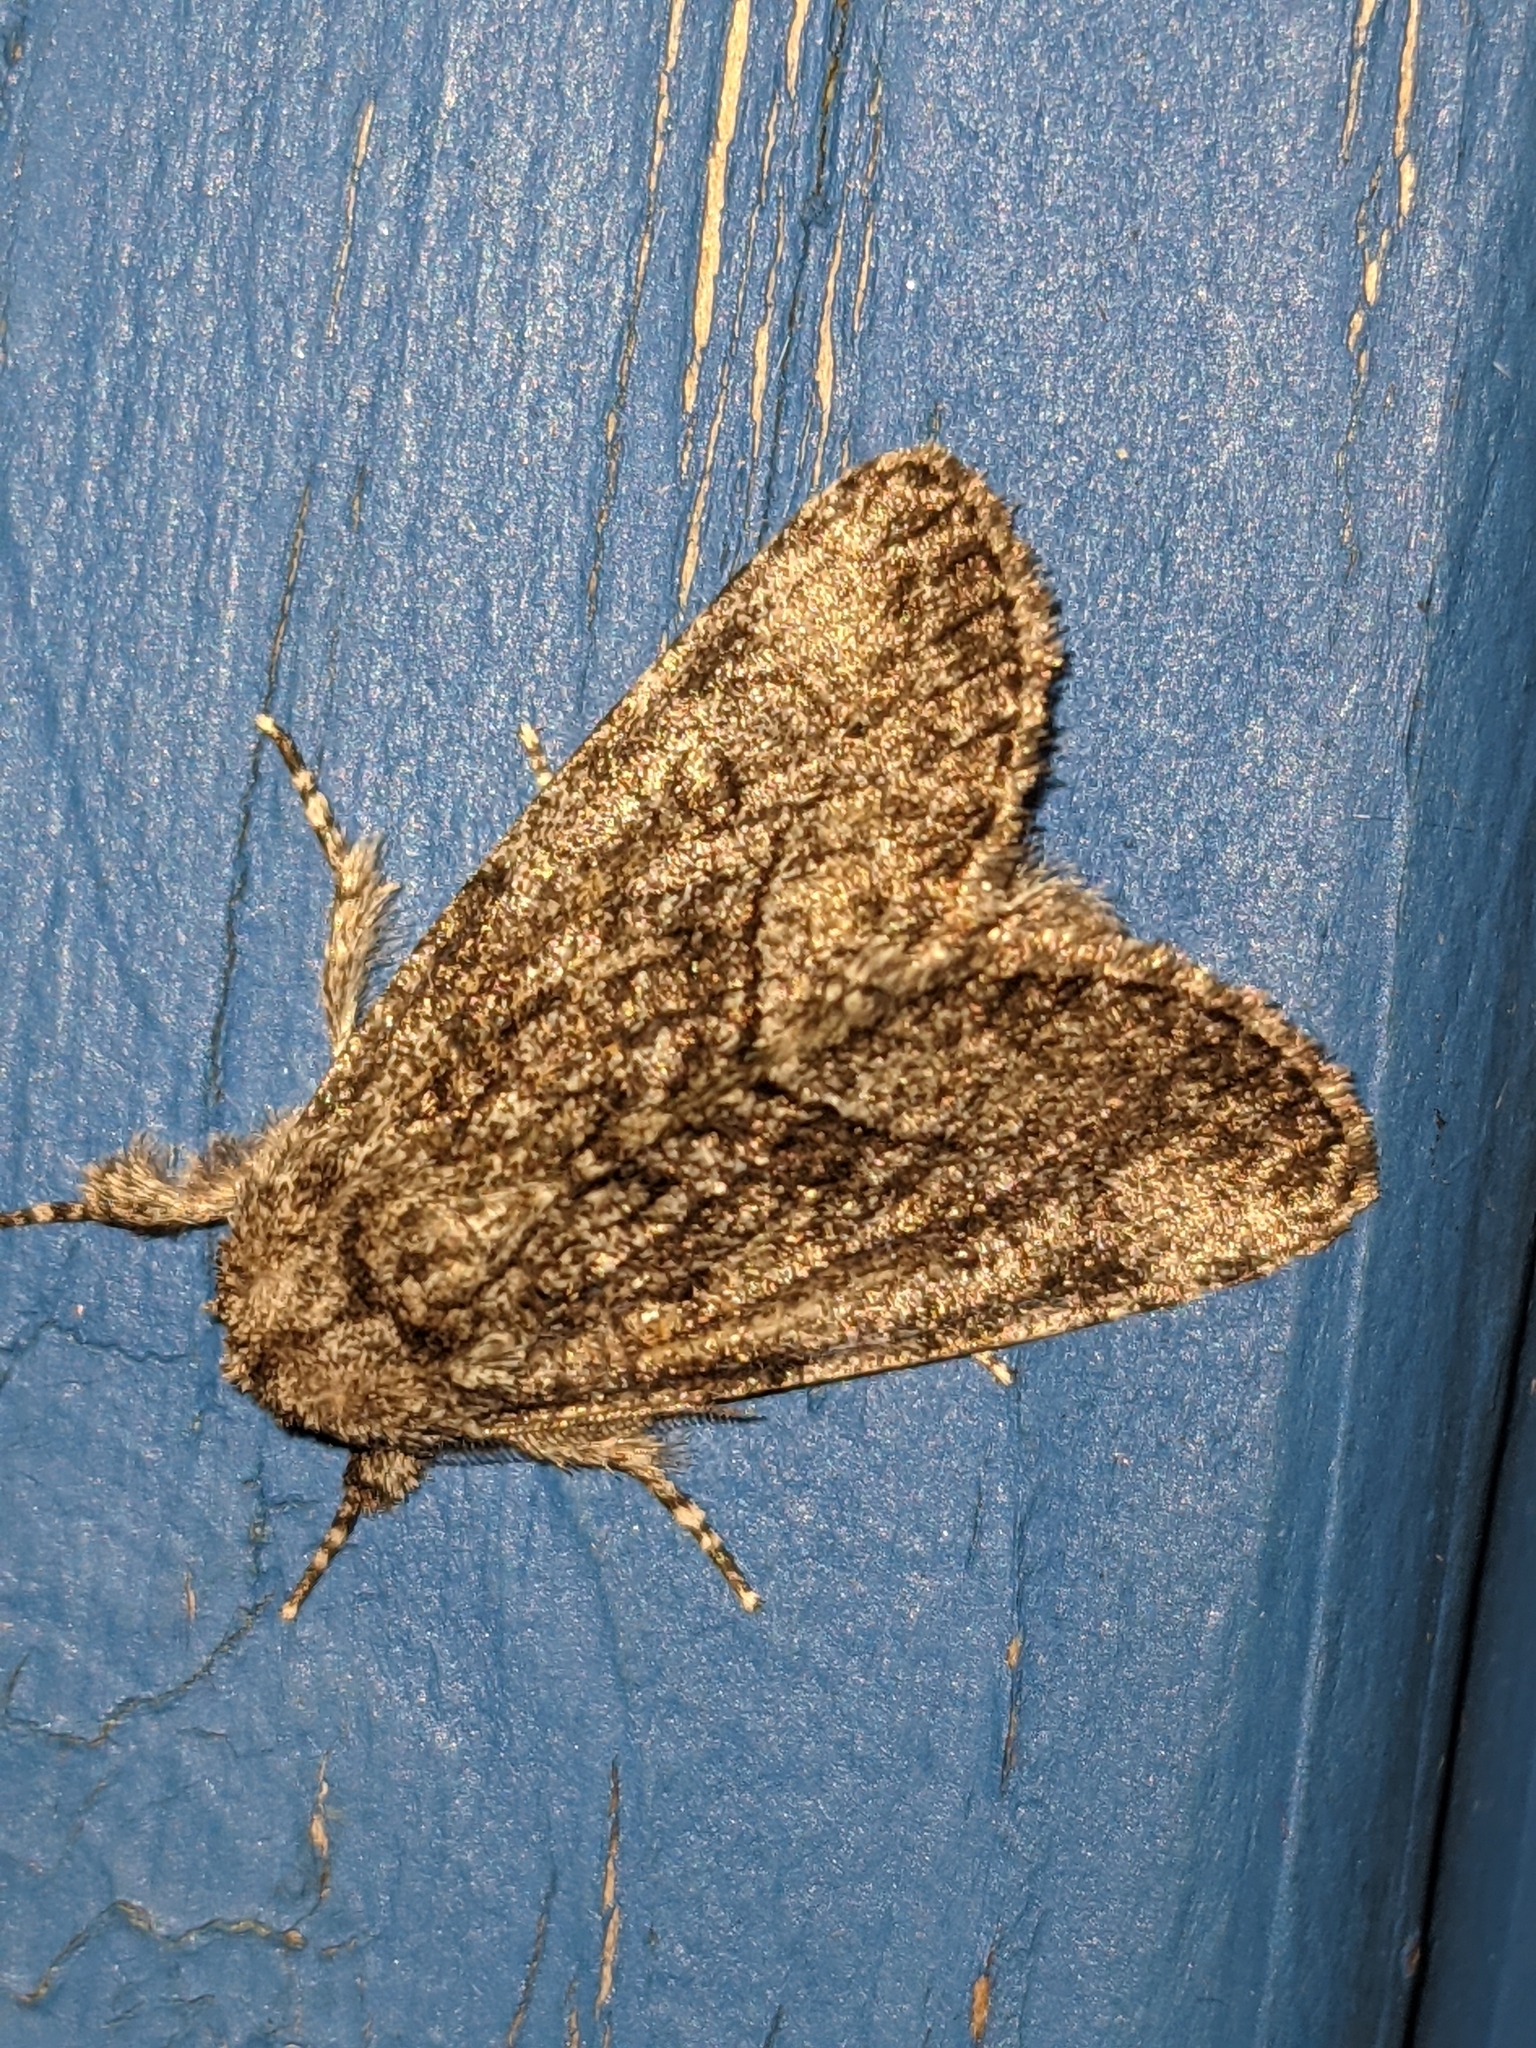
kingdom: Animalia
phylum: Arthropoda
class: Insecta
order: Lepidoptera
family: Noctuidae
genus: Raphia
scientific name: Raphia frater
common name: Brother
